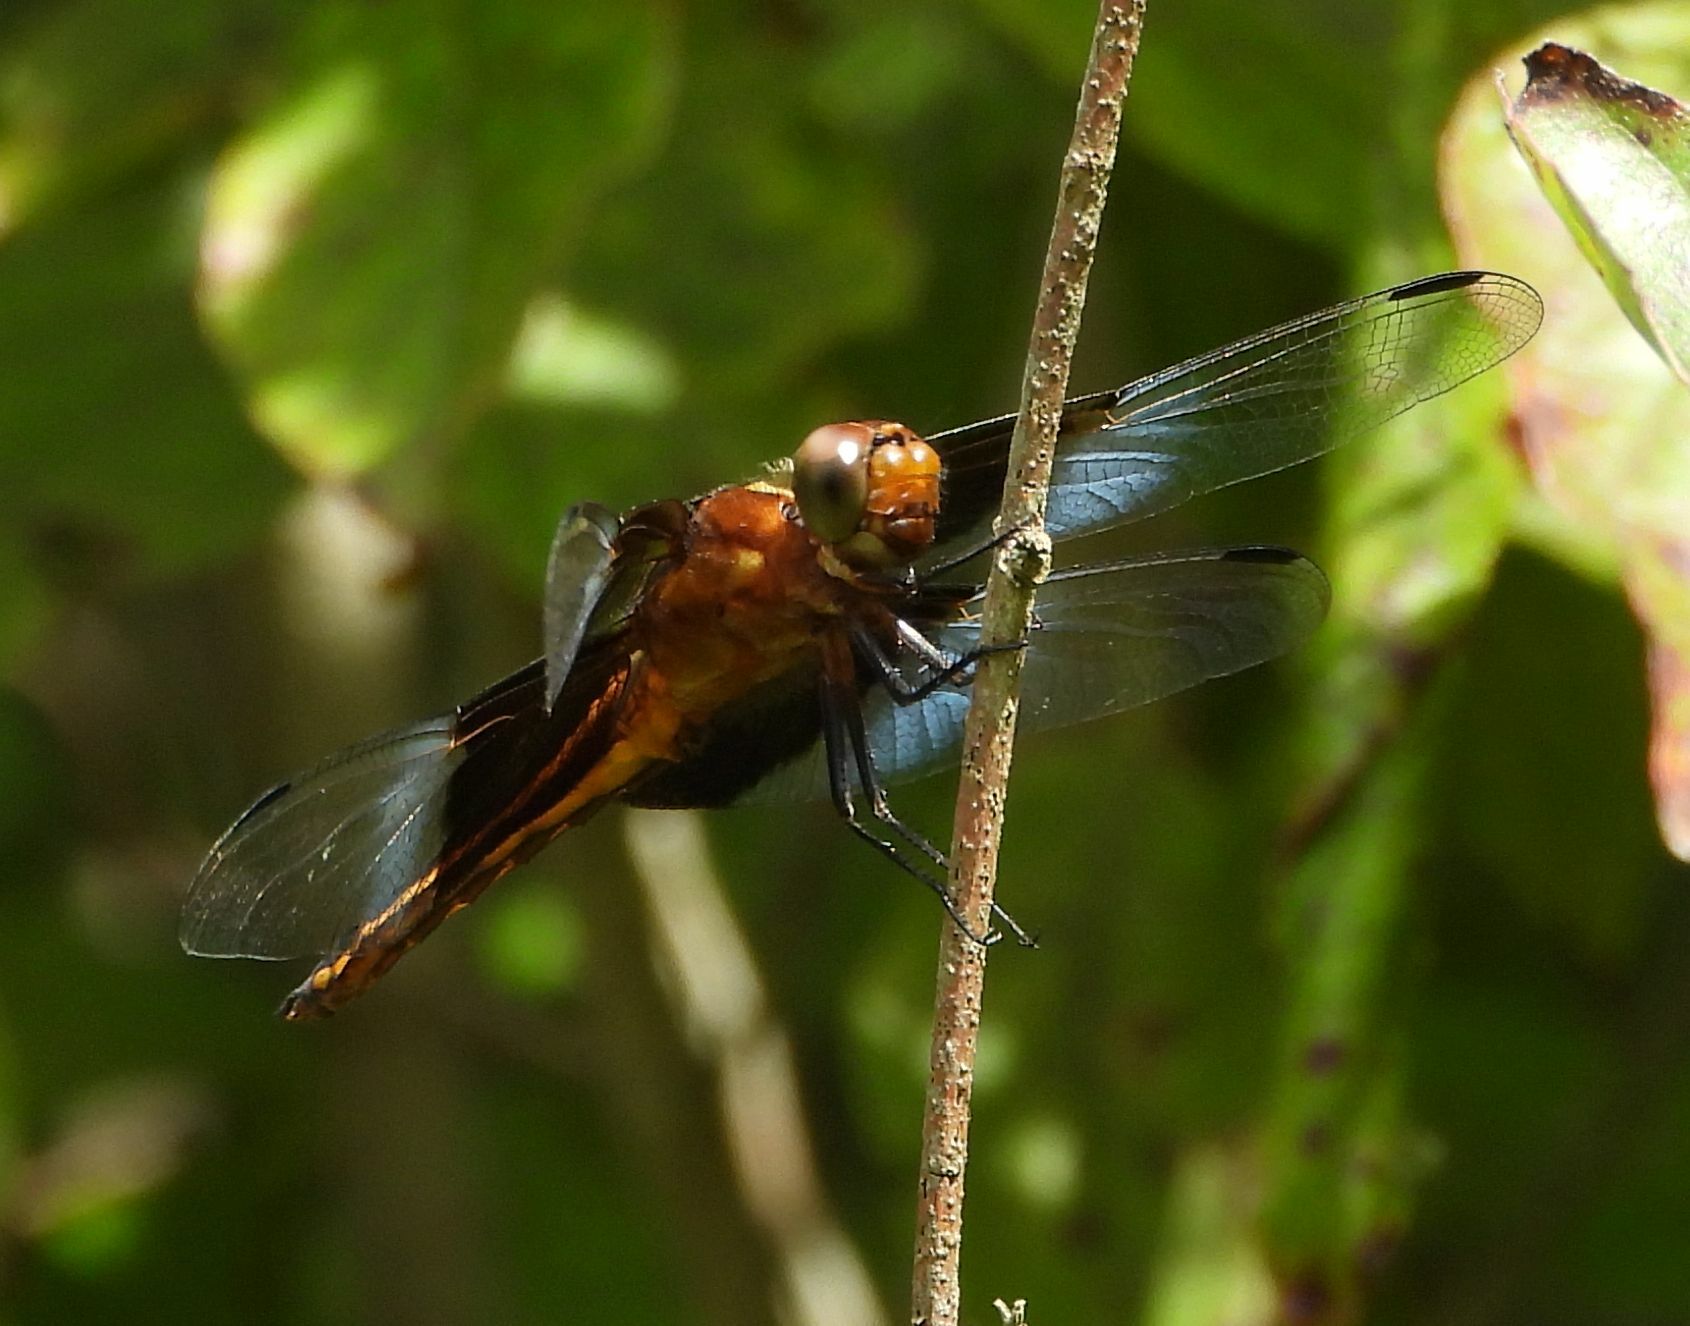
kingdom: Animalia
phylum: Arthropoda
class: Insecta
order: Odonata
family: Libellulidae
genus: Libellula
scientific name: Libellula luctuosa
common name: Widow skimmer
